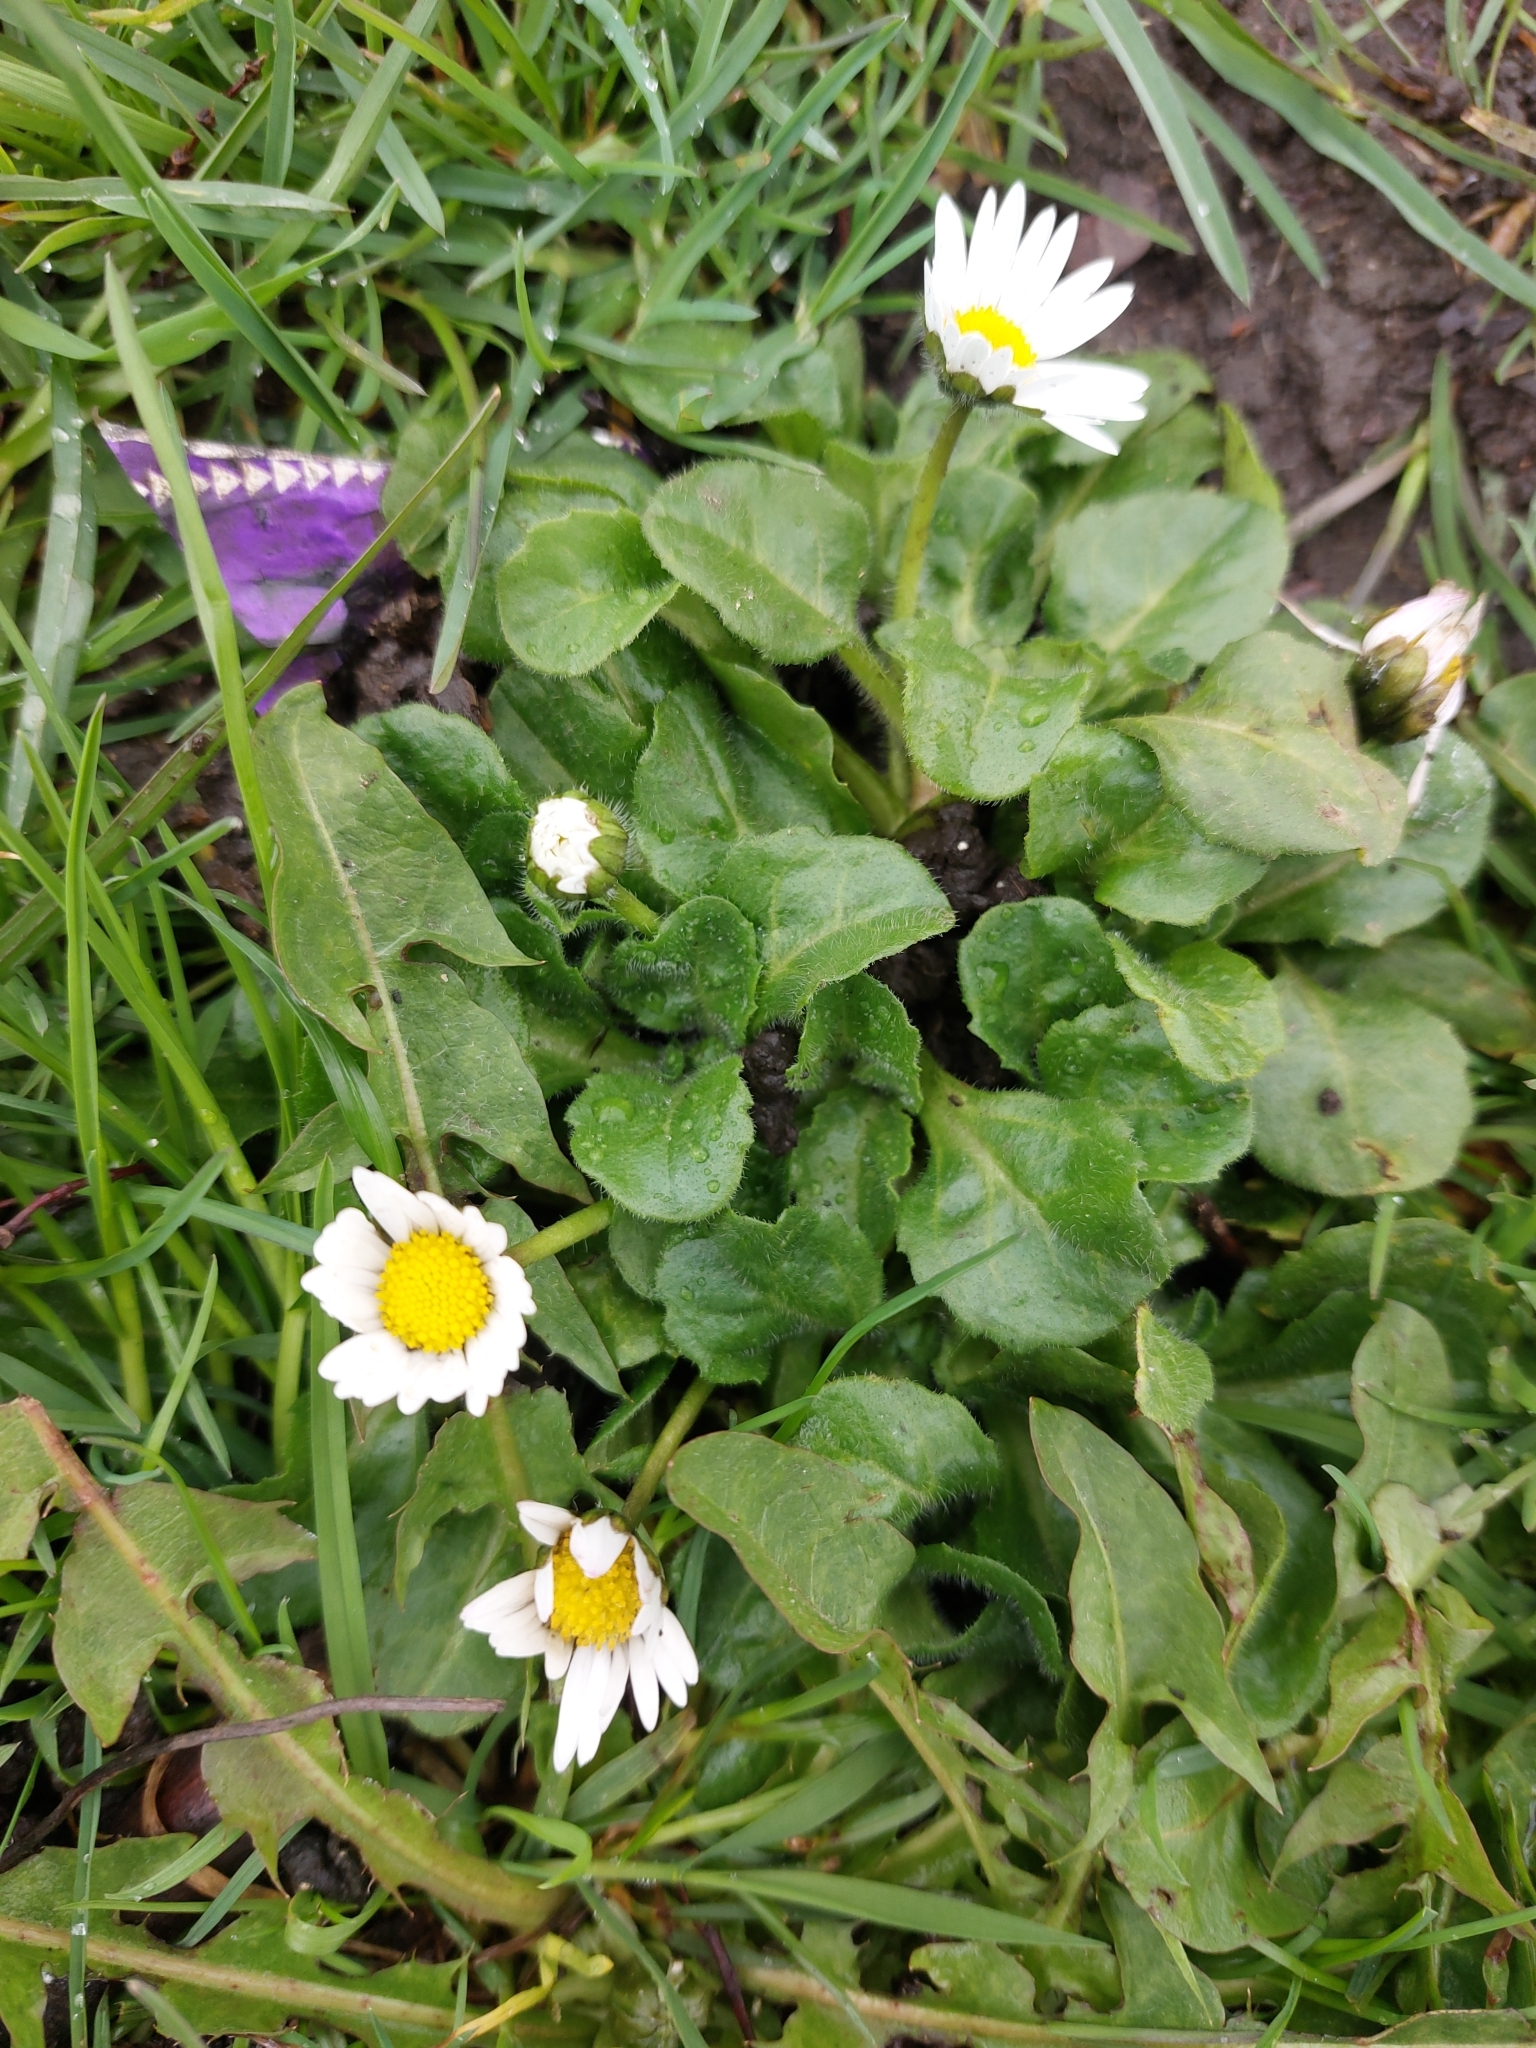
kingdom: Plantae
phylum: Tracheophyta
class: Magnoliopsida
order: Asterales
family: Asteraceae
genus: Bellis
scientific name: Bellis perennis
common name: Lawndaisy
